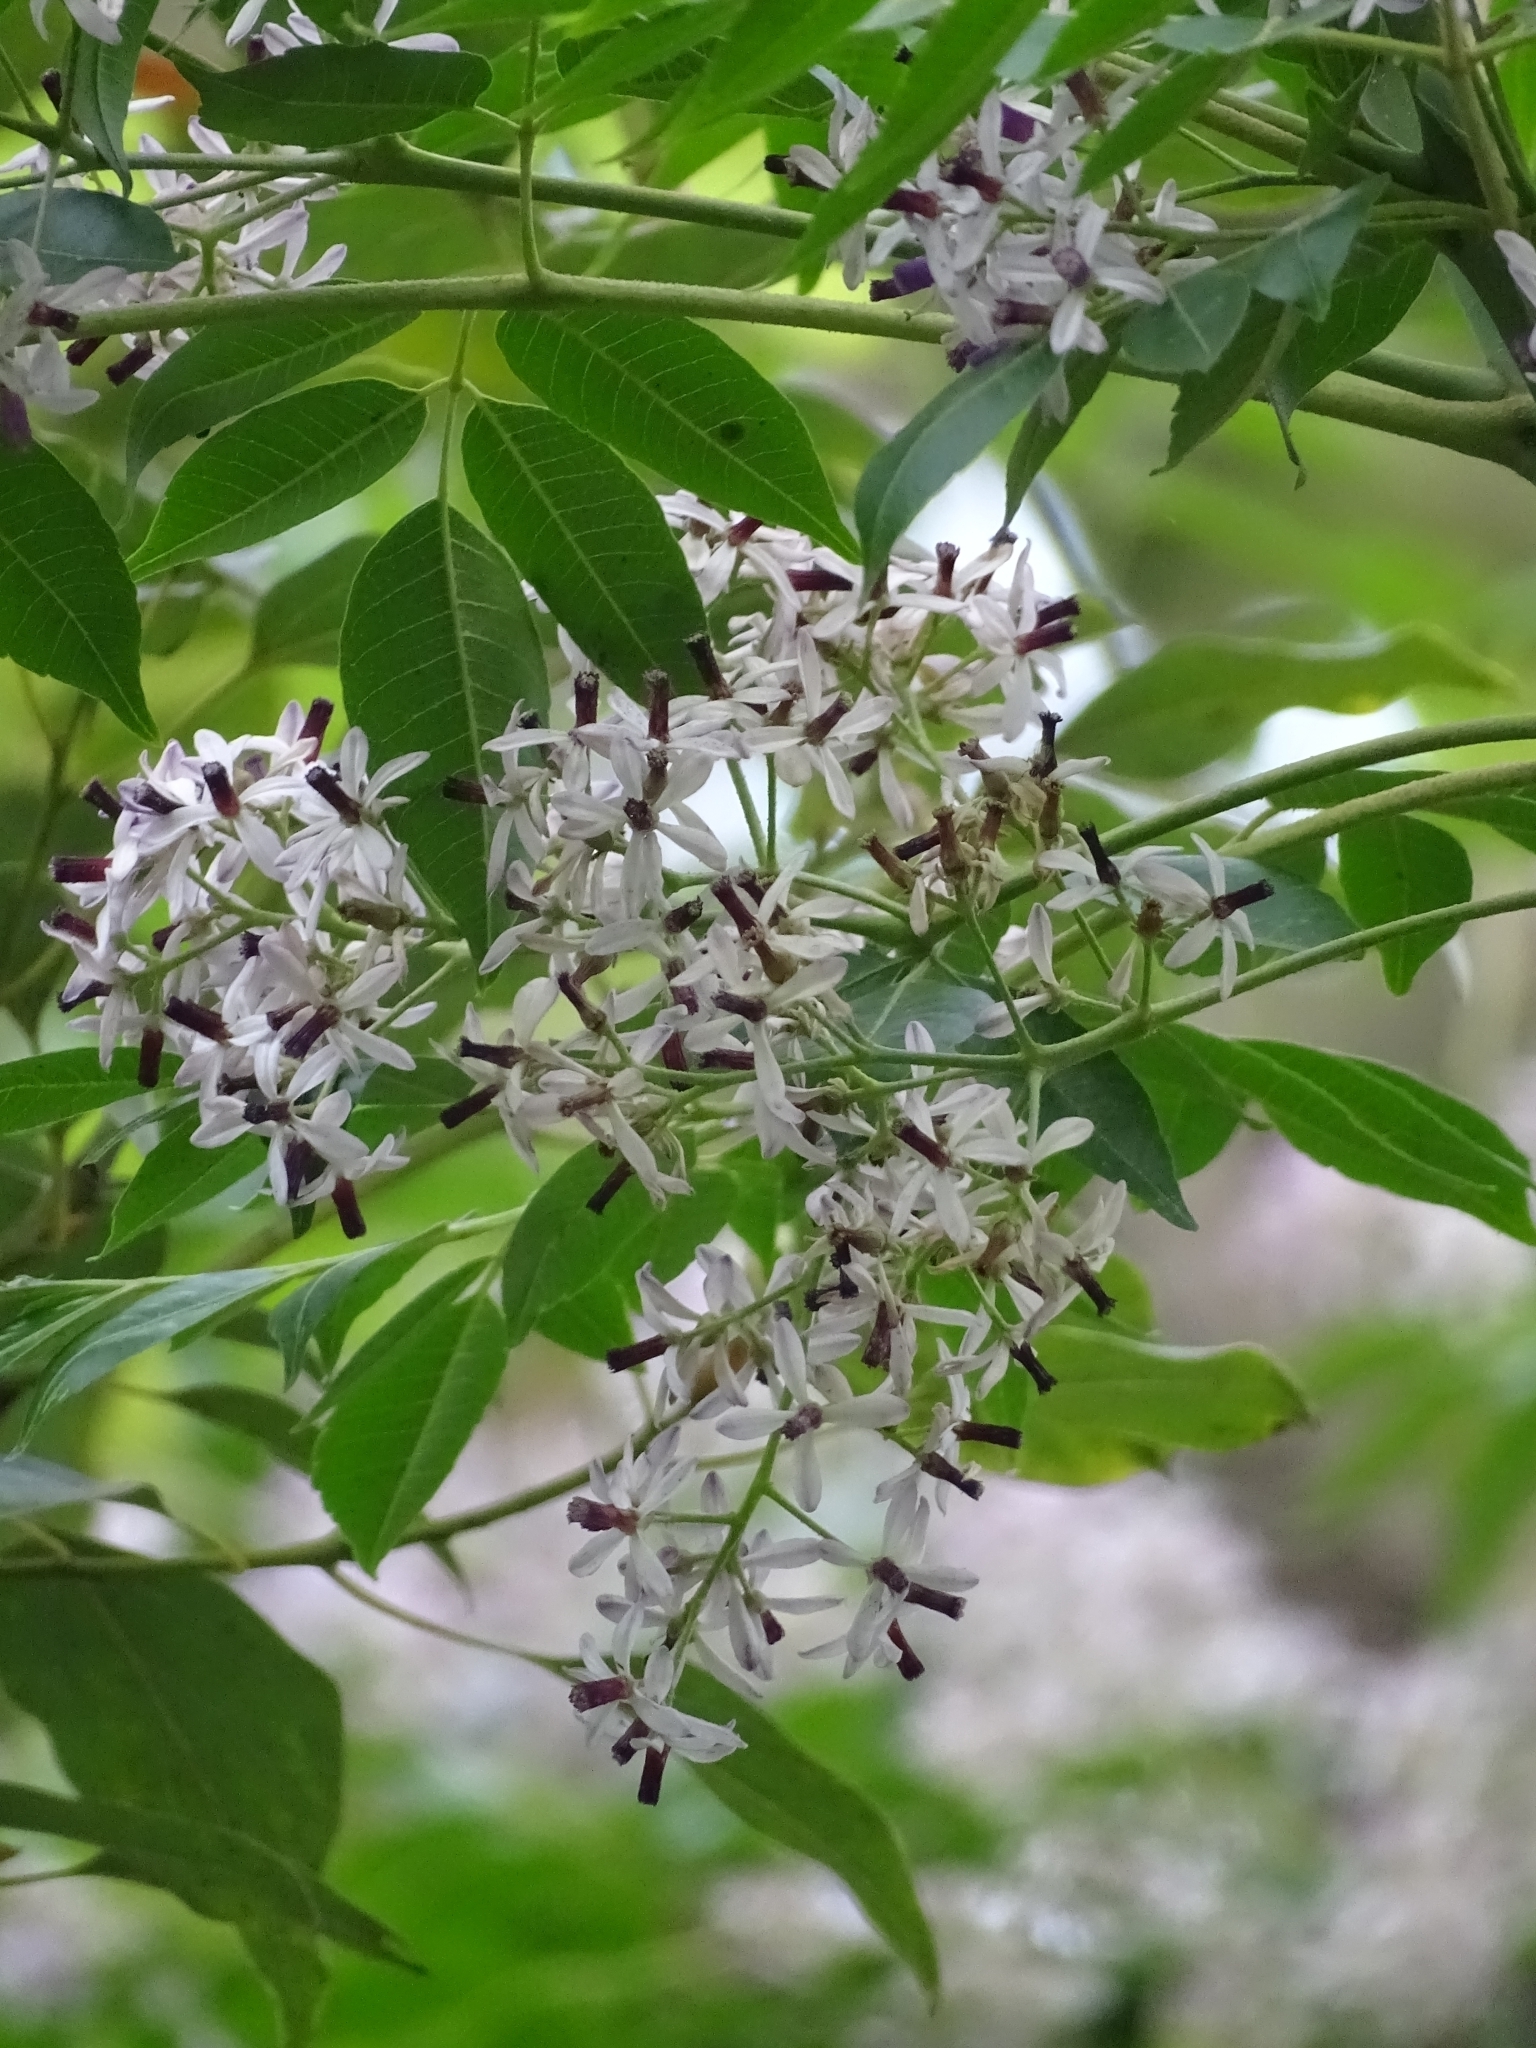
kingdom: Plantae
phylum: Tracheophyta
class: Magnoliopsida
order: Sapindales
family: Meliaceae
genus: Melia
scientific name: Melia azedarach
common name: Chinaberrytree
